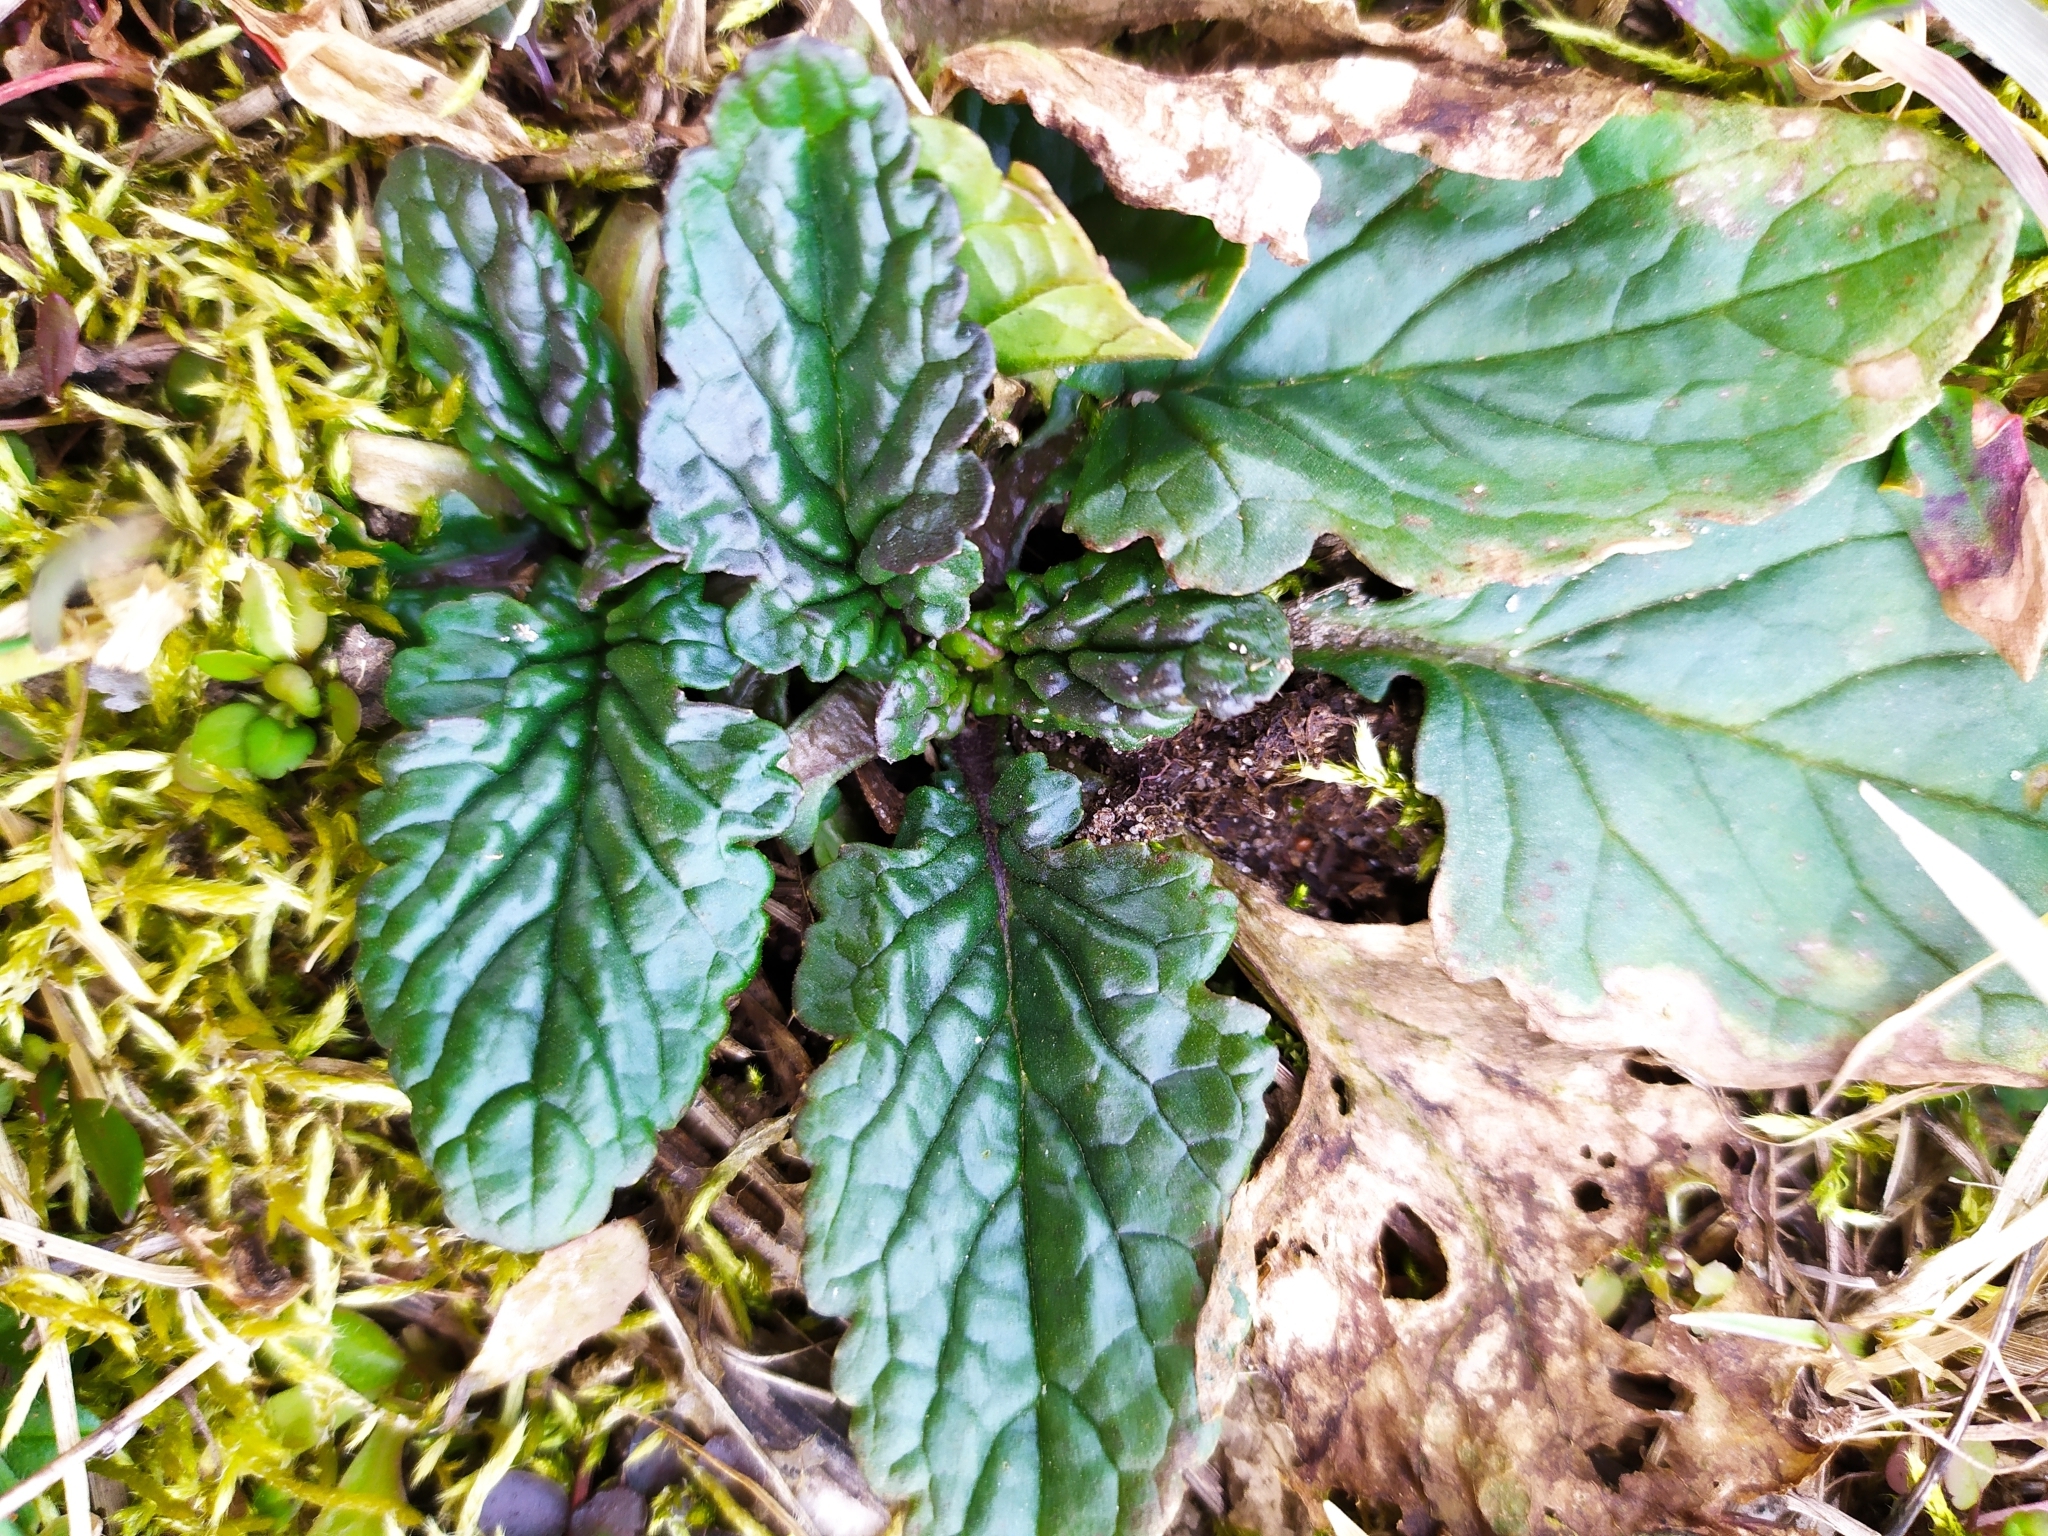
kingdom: Plantae
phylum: Tracheophyta
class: Magnoliopsida
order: Asterales
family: Asteraceae
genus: Jacobaea
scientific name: Jacobaea vulgaris
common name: Stinking willie
